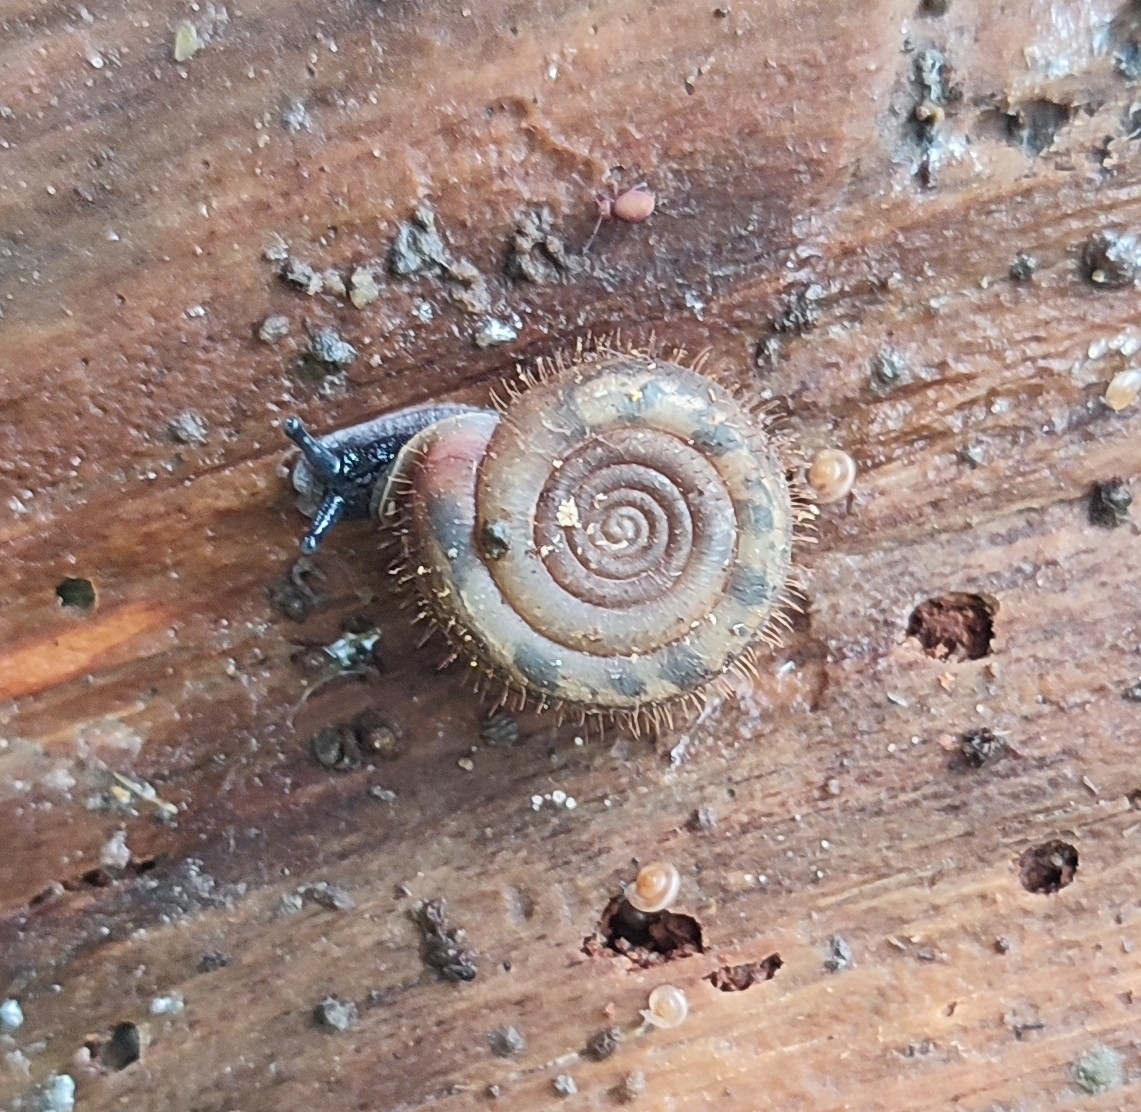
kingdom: Animalia
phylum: Mollusca
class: Gastropoda
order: Stylommatophora
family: Helicodontidae
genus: Helicodonta
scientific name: Helicodonta obvoluta
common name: Cheese snail
